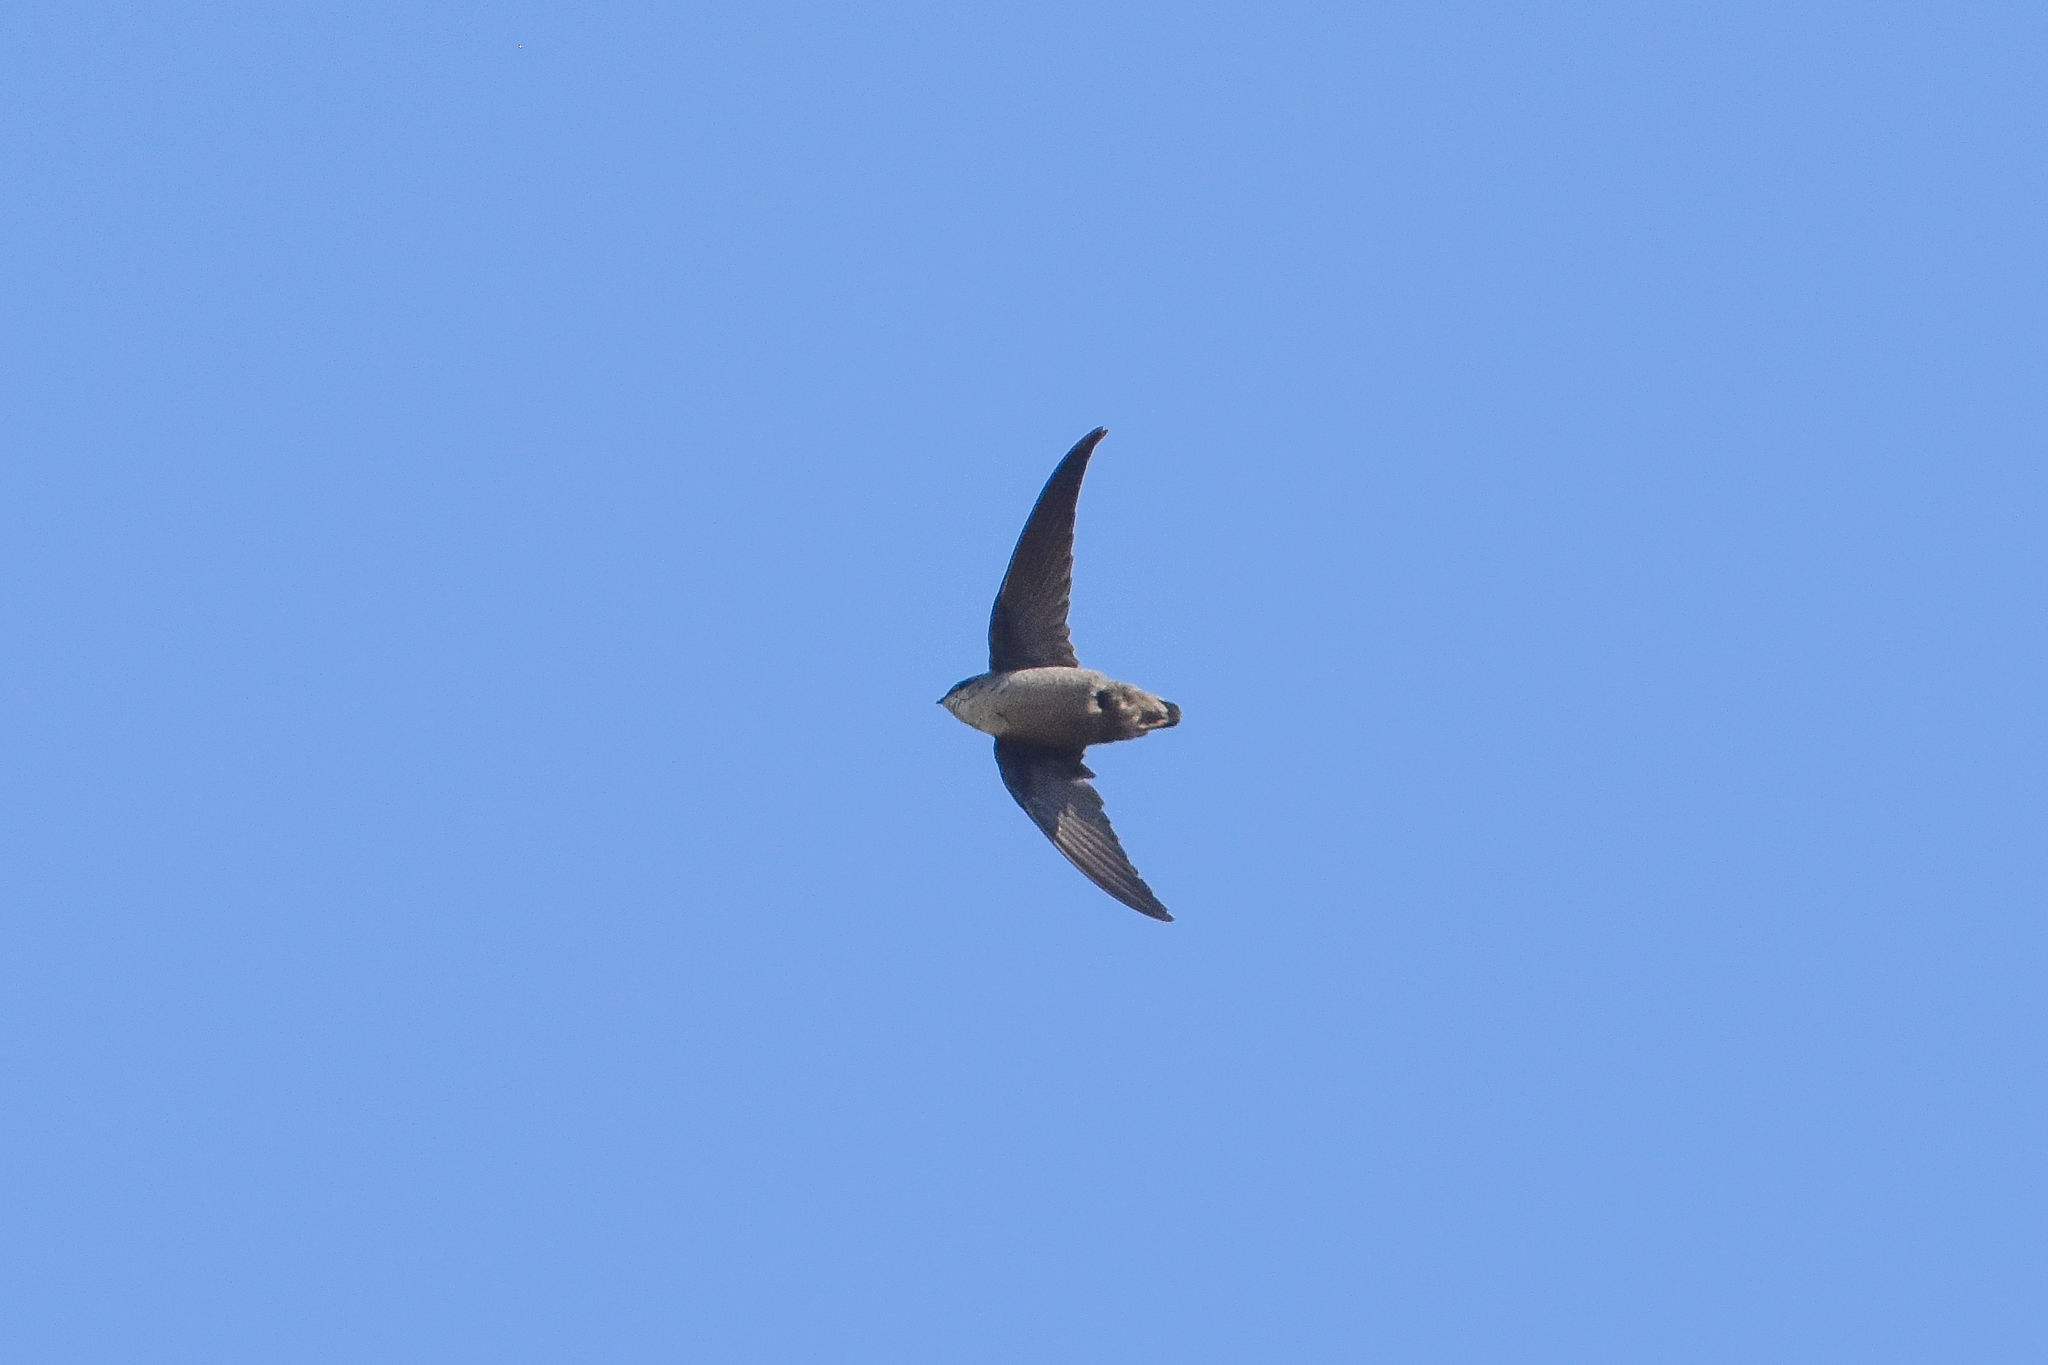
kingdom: Animalia
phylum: Chordata
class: Aves
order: Apodiformes
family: Apodidae
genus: Chaetura
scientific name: Chaetura vauxi
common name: Vaux's swift
